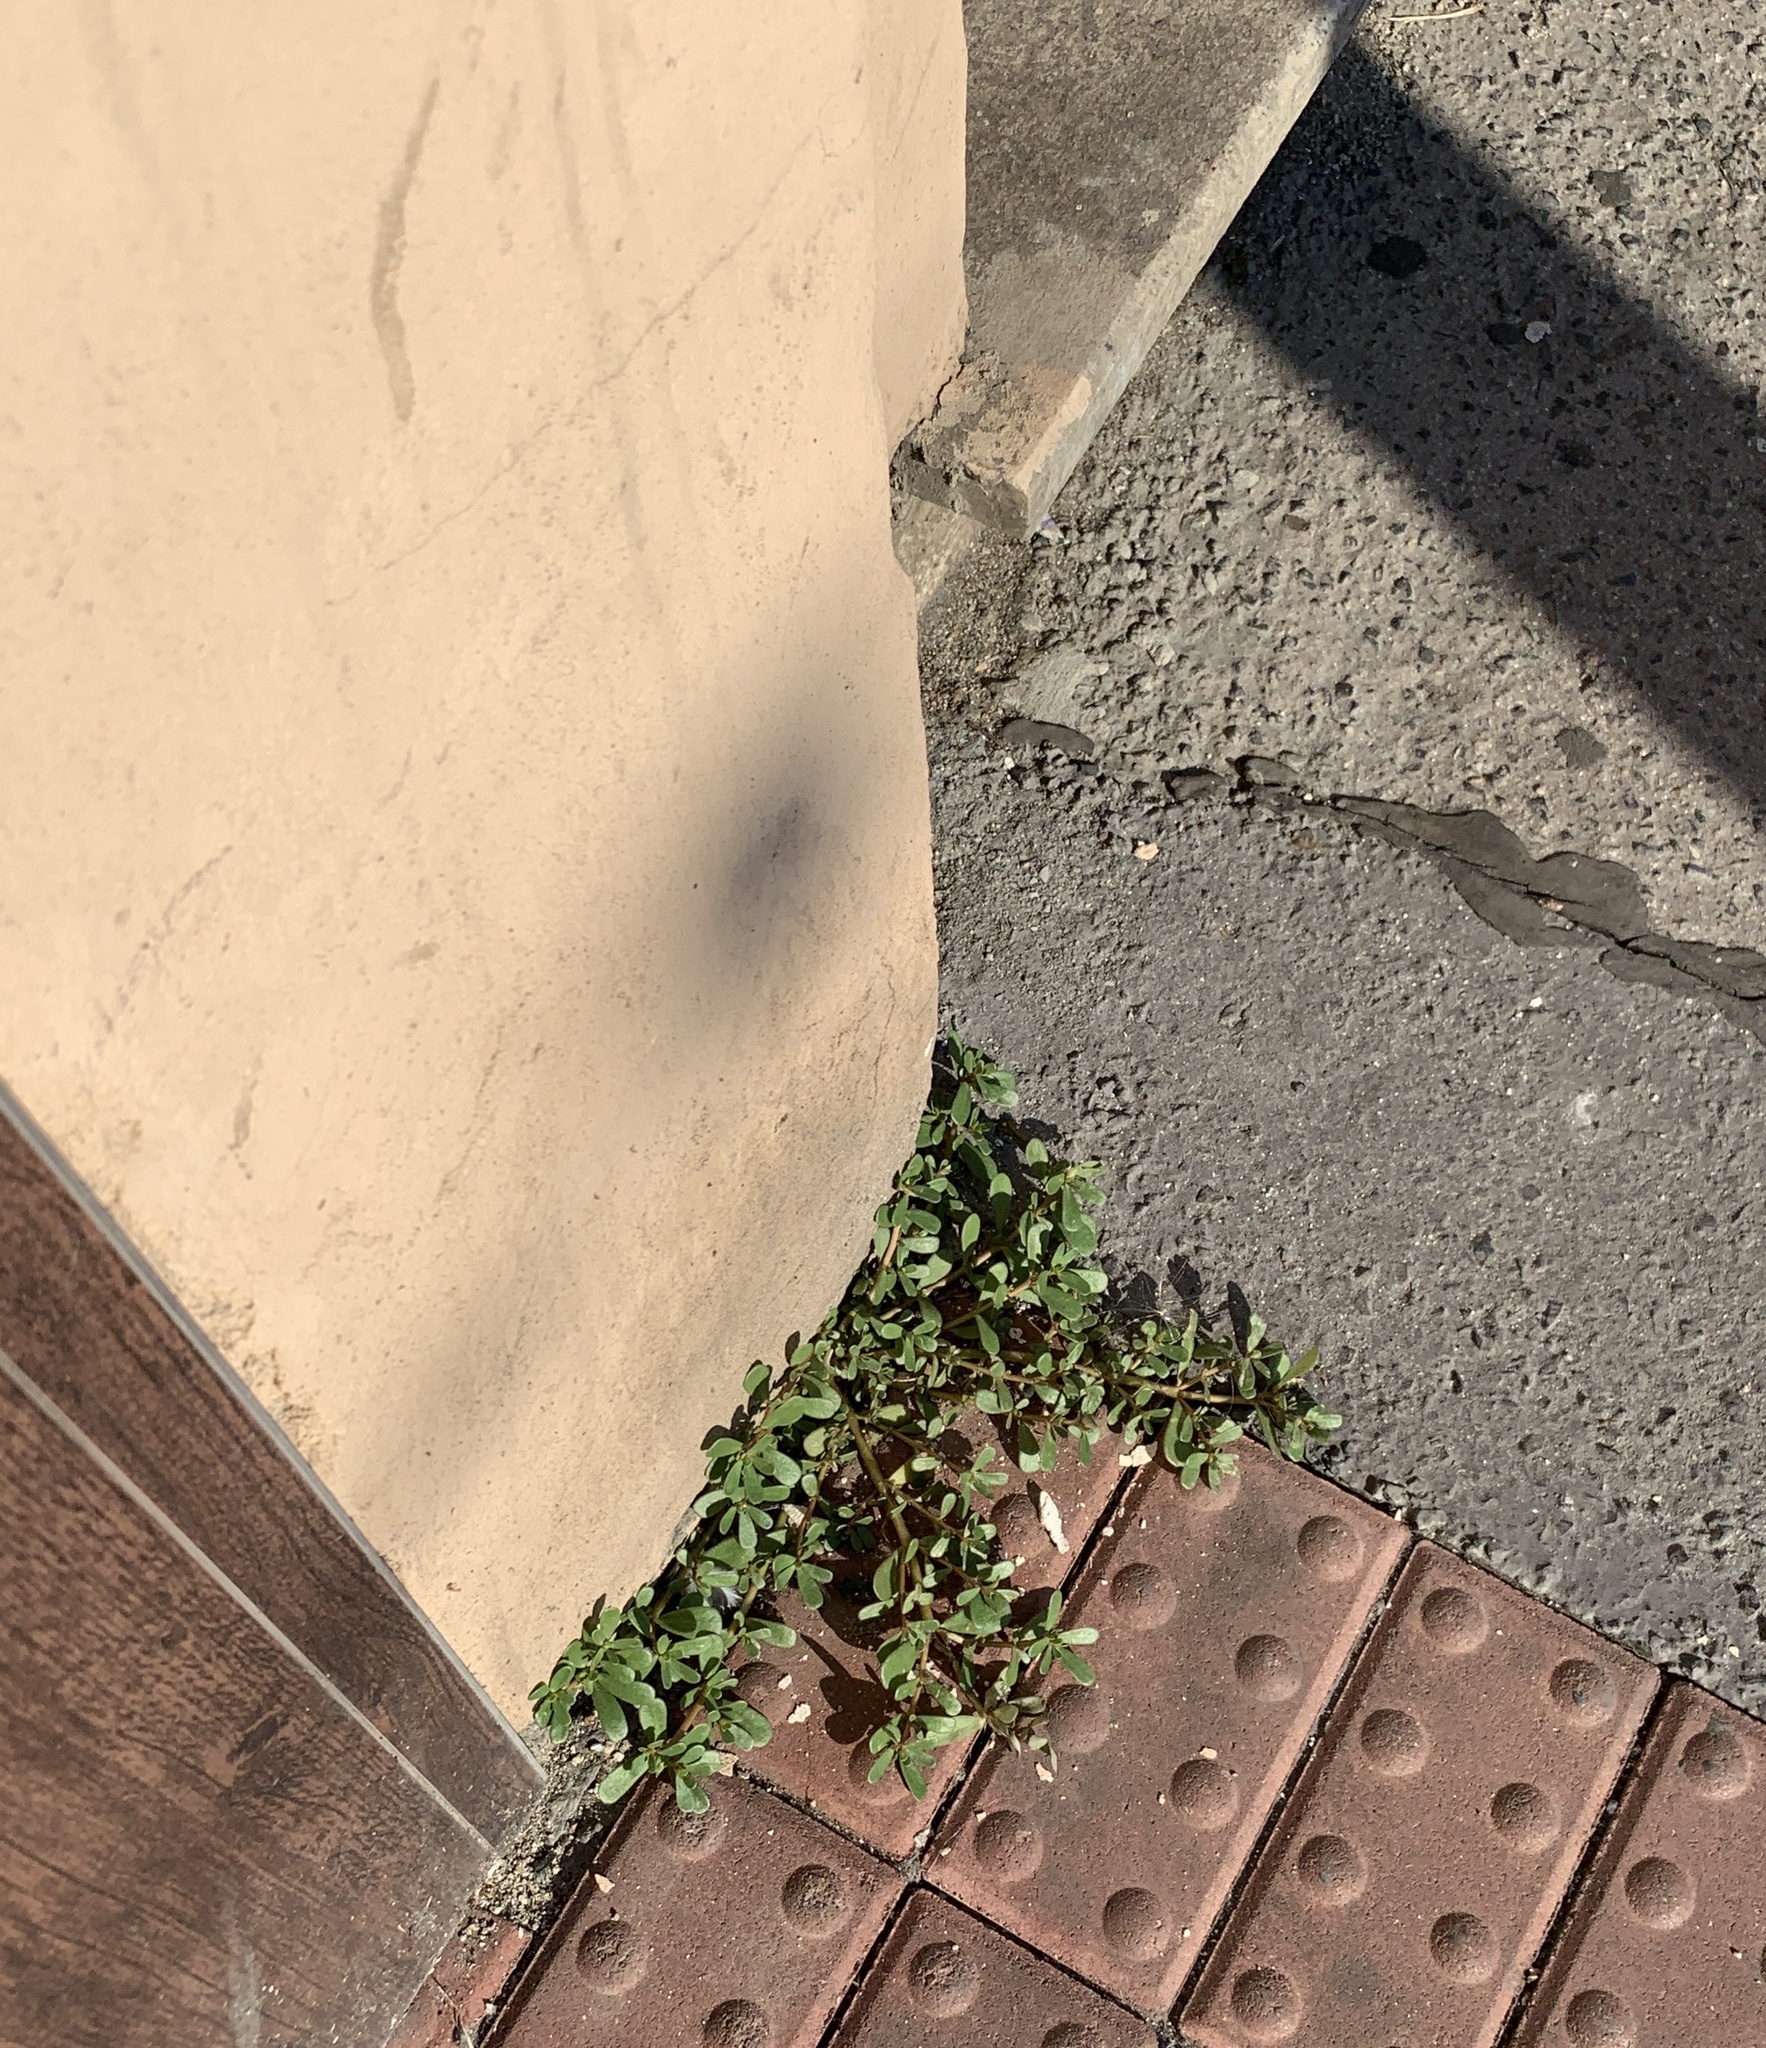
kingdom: Plantae
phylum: Tracheophyta
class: Magnoliopsida
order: Caryophyllales
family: Portulacaceae
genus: Portulaca
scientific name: Portulaca oleracea
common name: Common purslane
